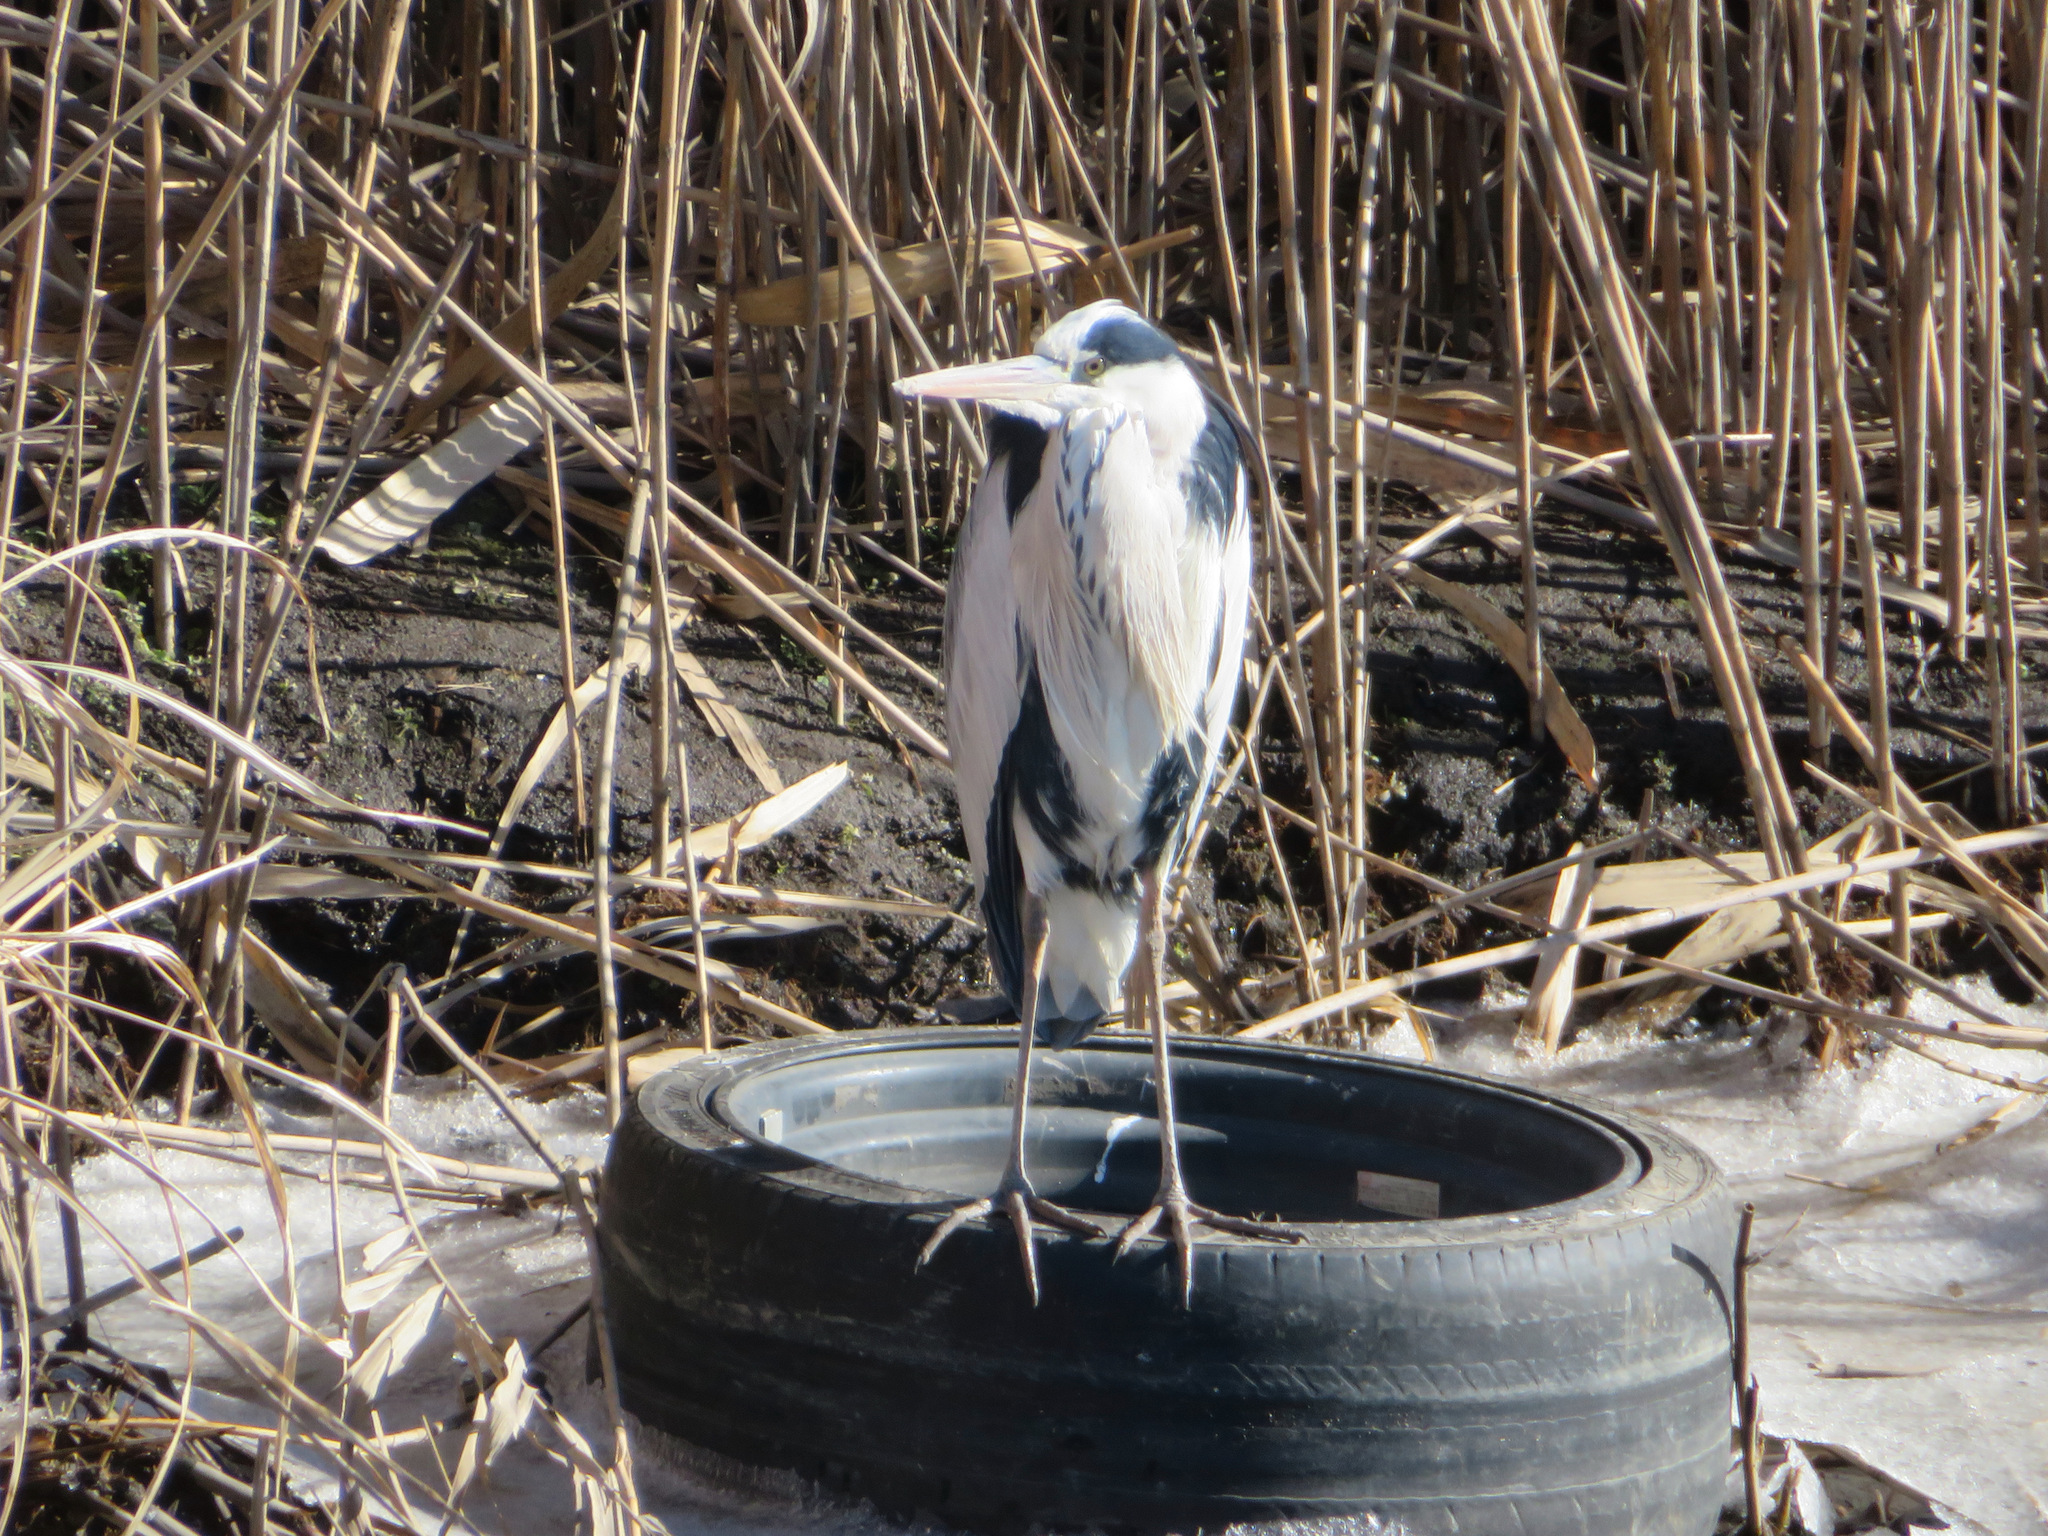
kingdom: Animalia
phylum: Chordata
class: Aves
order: Pelecaniformes
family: Ardeidae
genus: Ardea
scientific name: Ardea cinerea
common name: Grey heron
